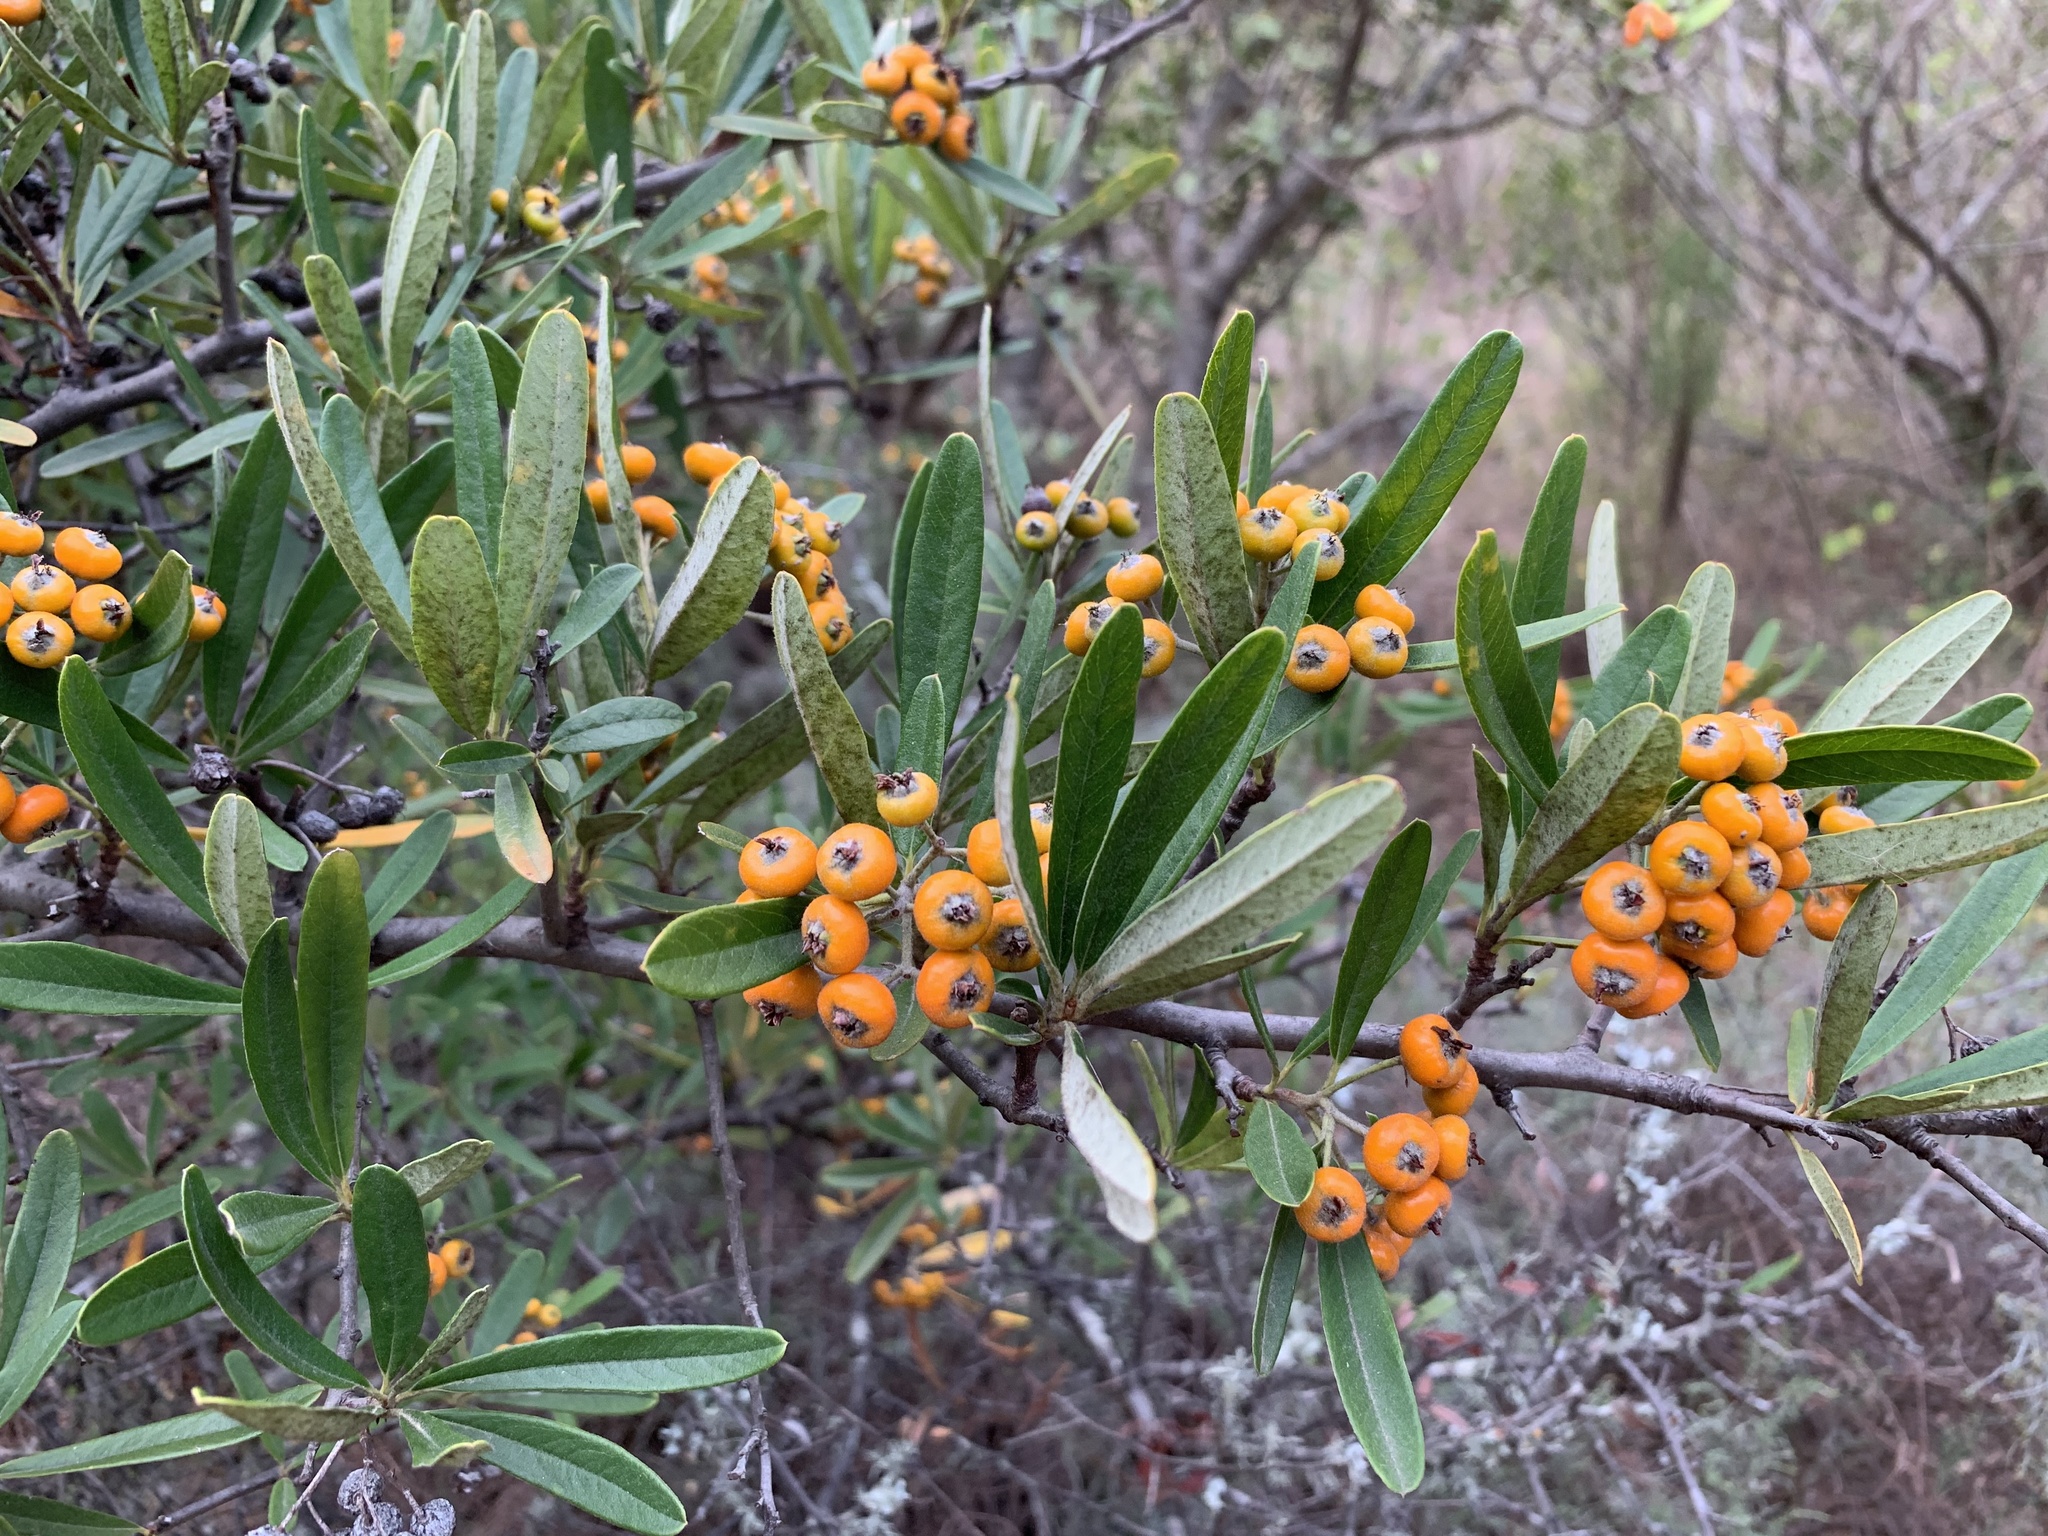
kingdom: Plantae
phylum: Tracheophyta
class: Magnoliopsida
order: Rosales
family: Rosaceae
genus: Pyracantha
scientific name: Pyracantha angustifolia
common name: Narrowleaf firethorn
